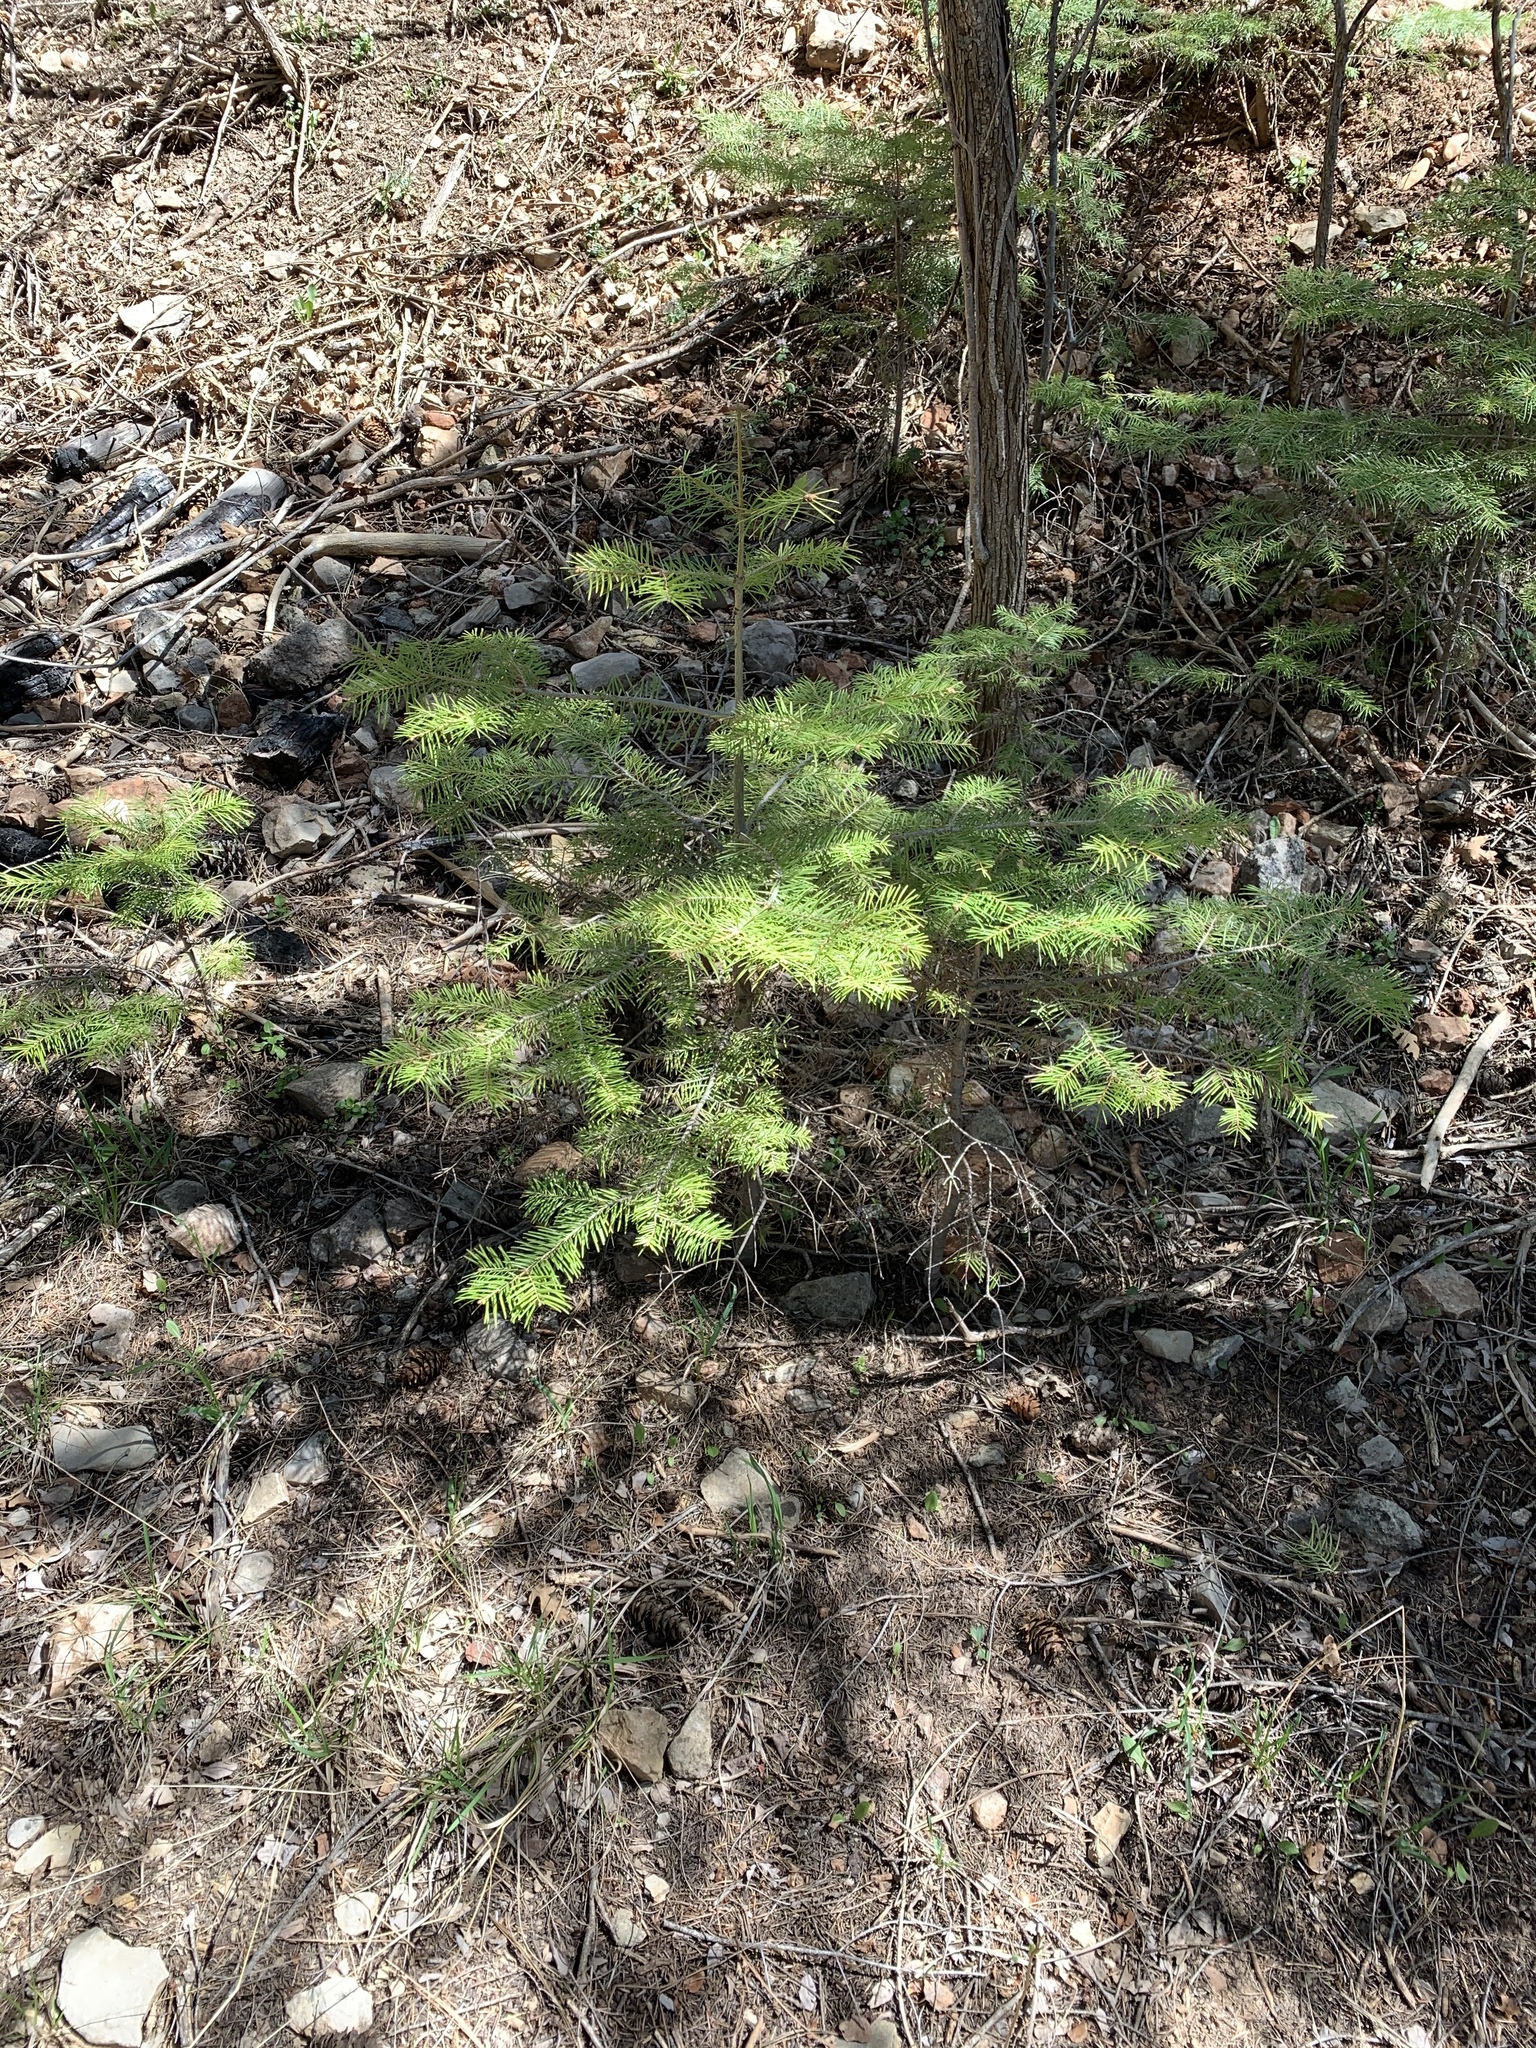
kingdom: Plantae
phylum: Tracheophyta
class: Pinopsida
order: Pinales
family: Pinaceae
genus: Abies
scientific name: Abies concolor
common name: Colorado fir
